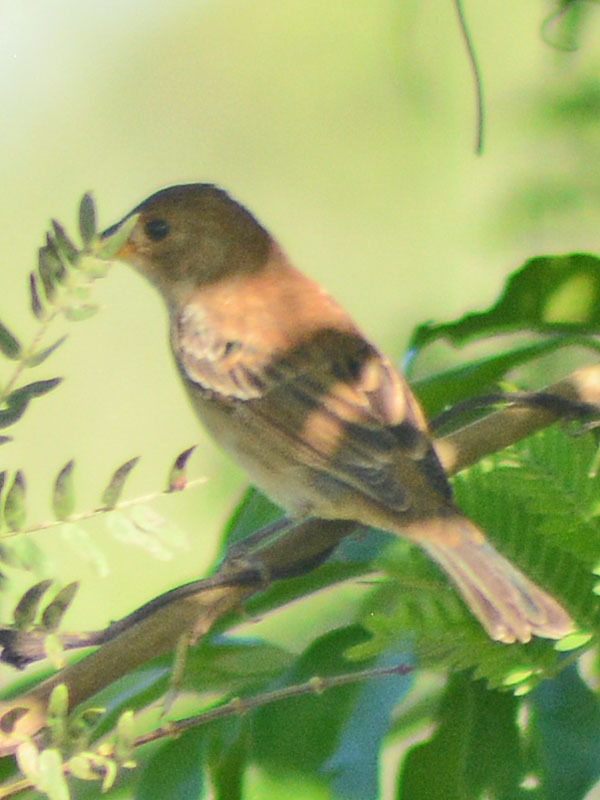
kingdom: Animalia
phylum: Chordata
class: Aves
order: Passeriformes
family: Cardinalidae
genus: Passerina
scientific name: Passerina cyanea
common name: Indigo bunting
